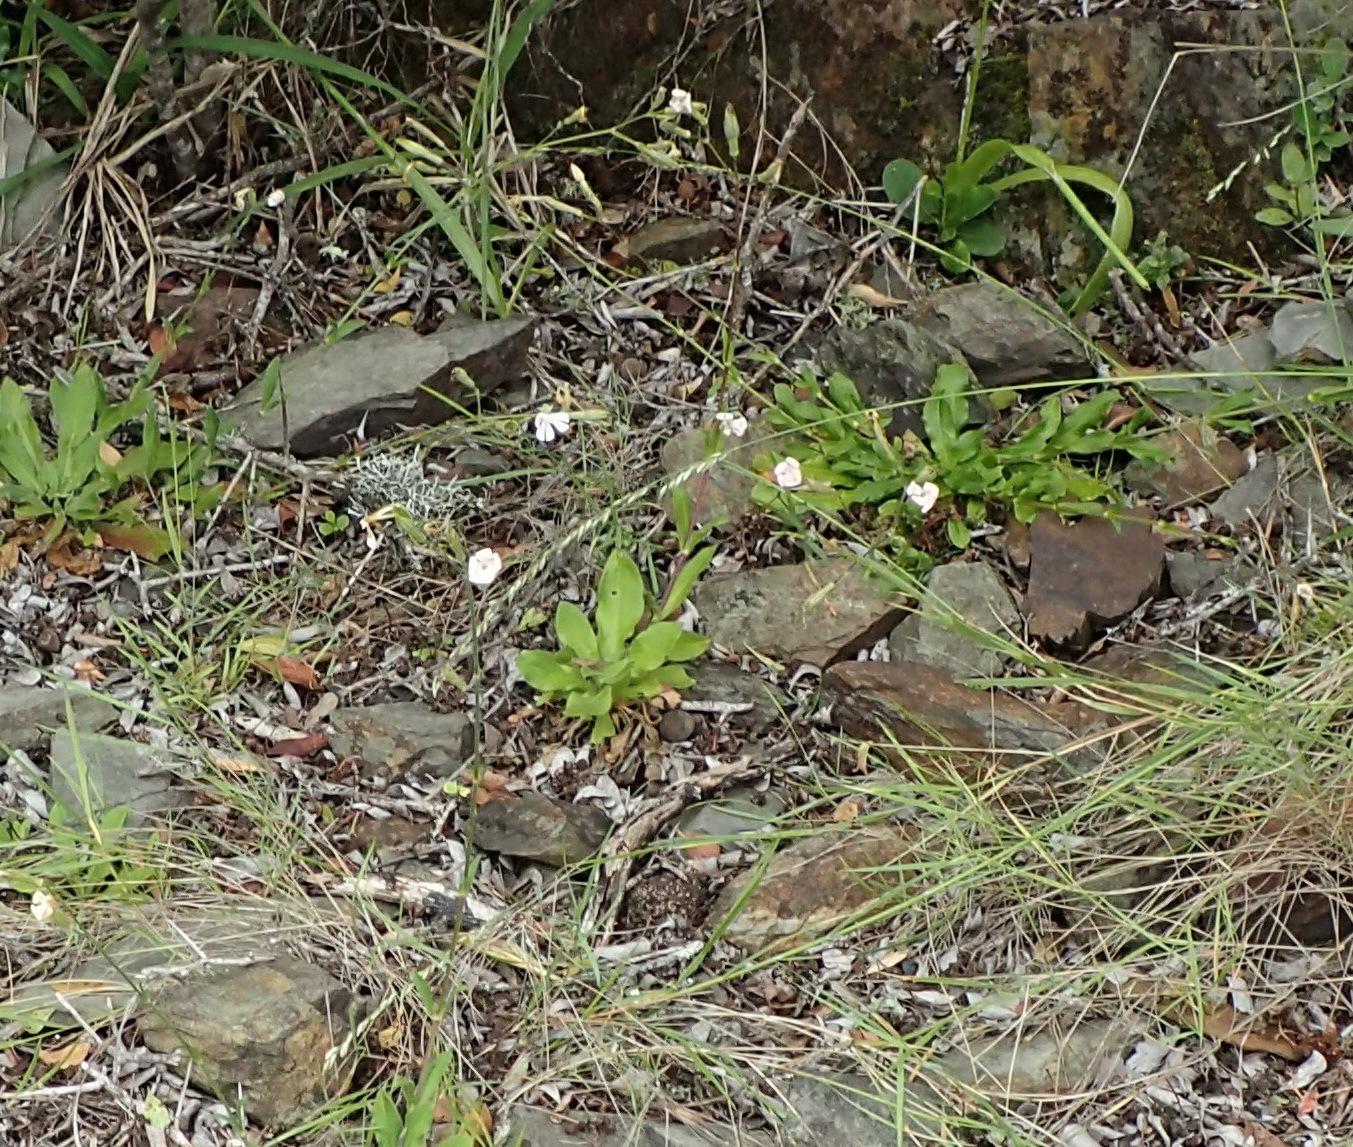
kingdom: Plantae
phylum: Tracheophyta
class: Magnoliopsida
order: Caryophyllales
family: Caryophyllaceae
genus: Silene
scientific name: Silene undulata
